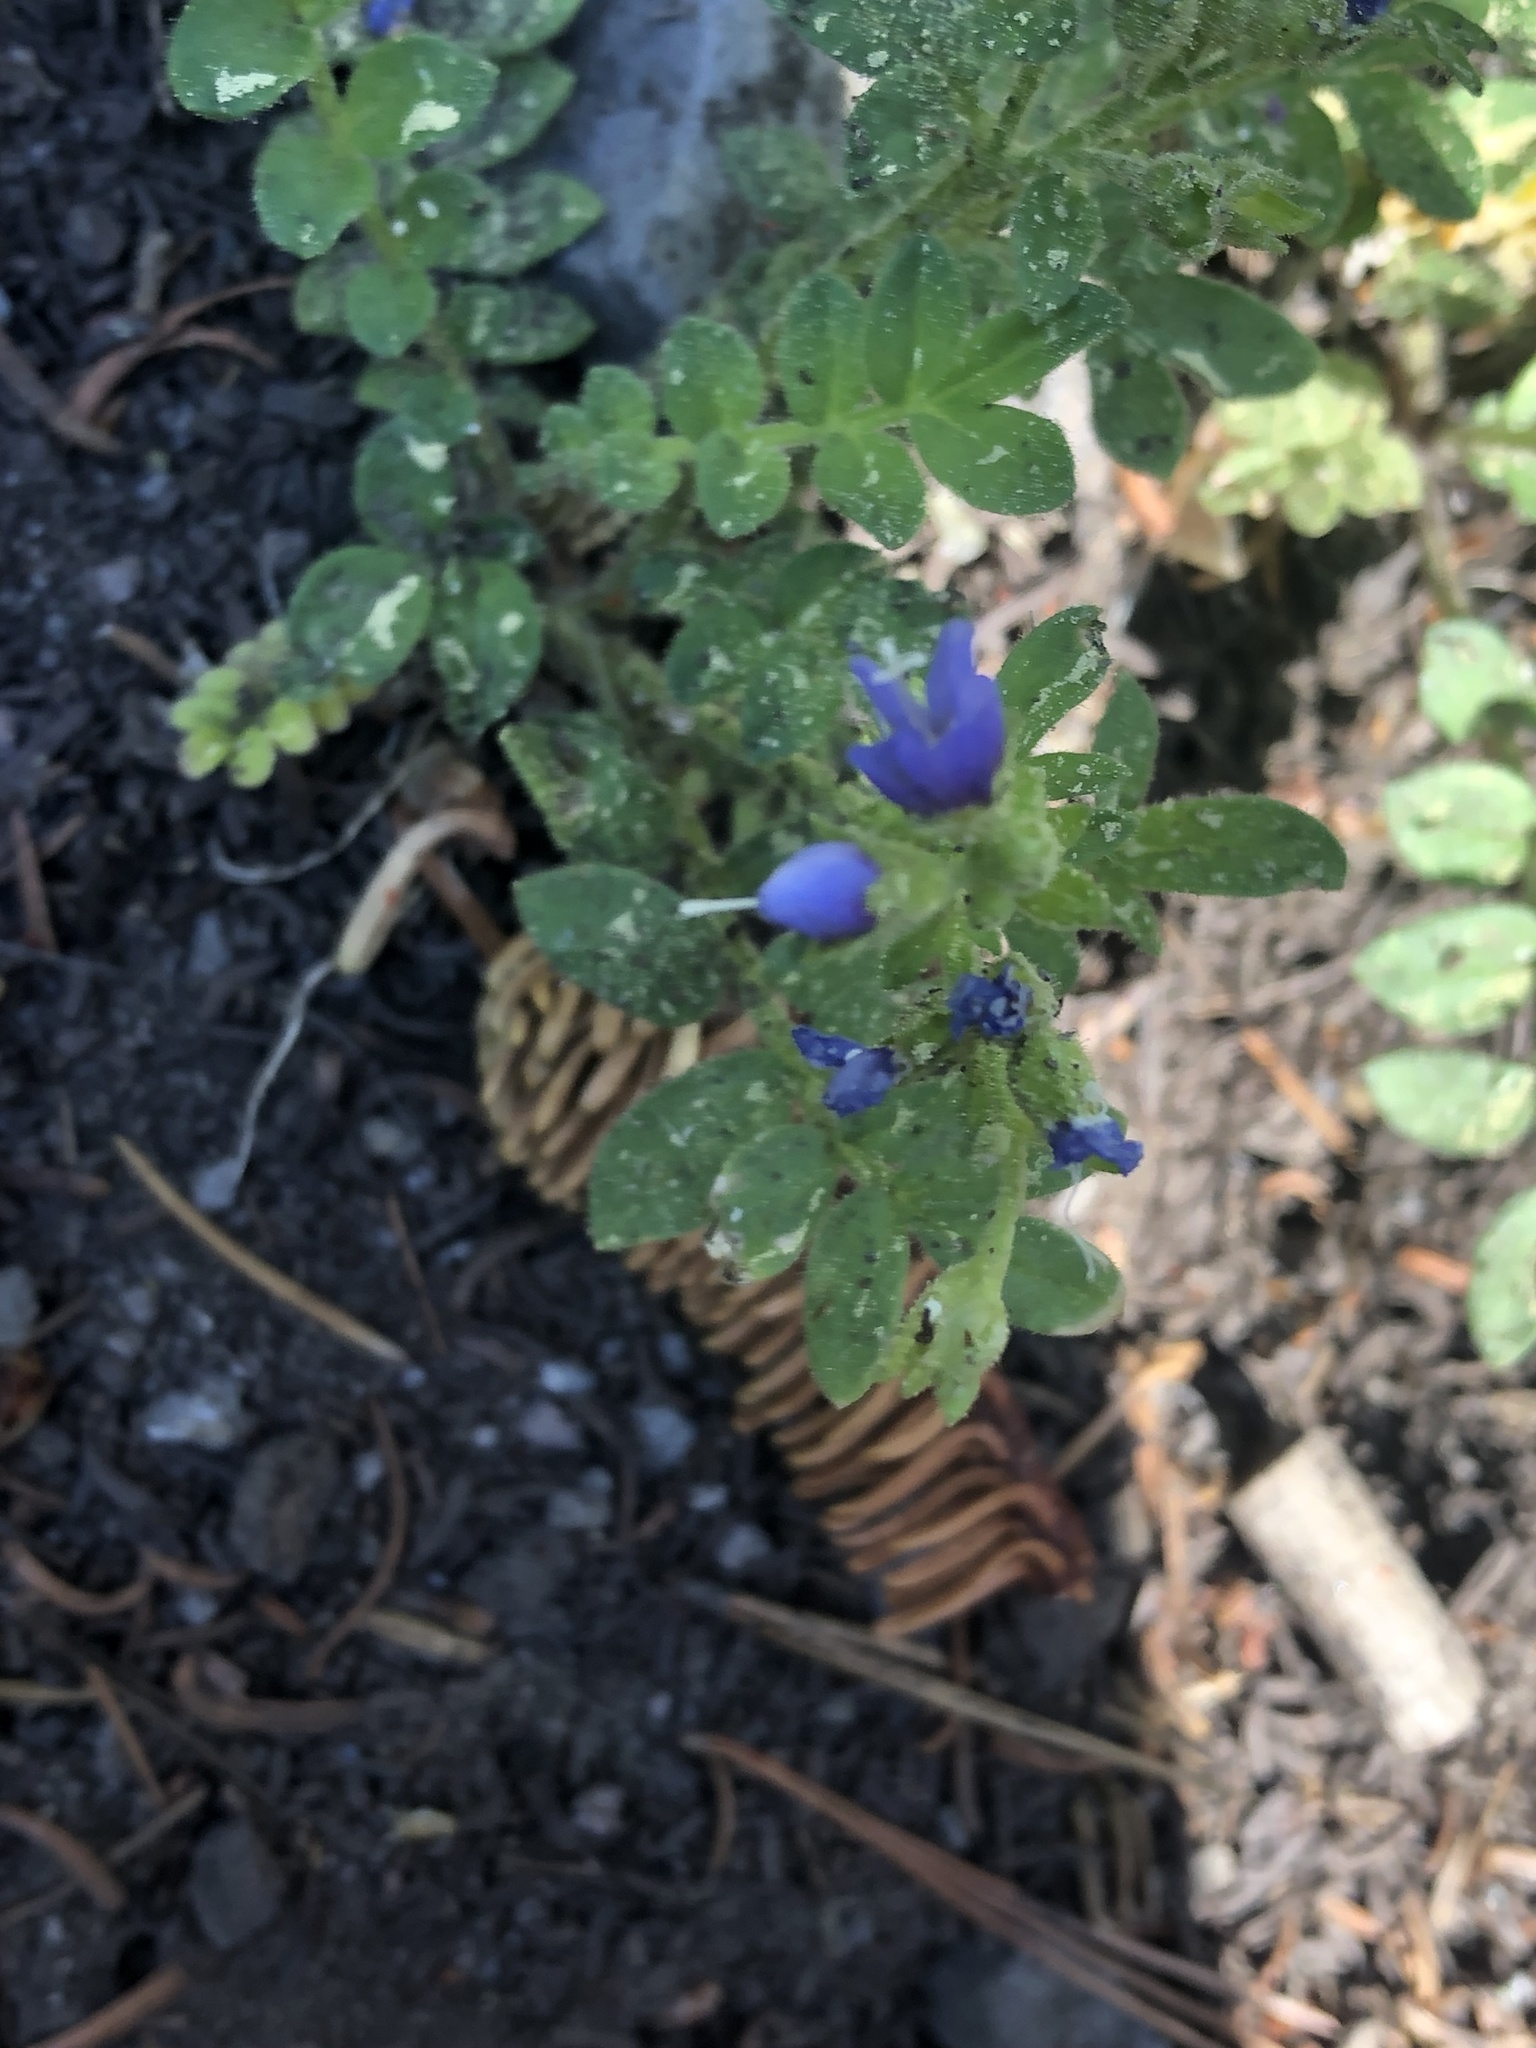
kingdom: Plantae
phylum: Tracheophyta
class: Magnoliopsida
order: Ericales
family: Polemoniaceae
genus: Polemonium
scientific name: Polemonium californicum
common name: California jacob's ladder
